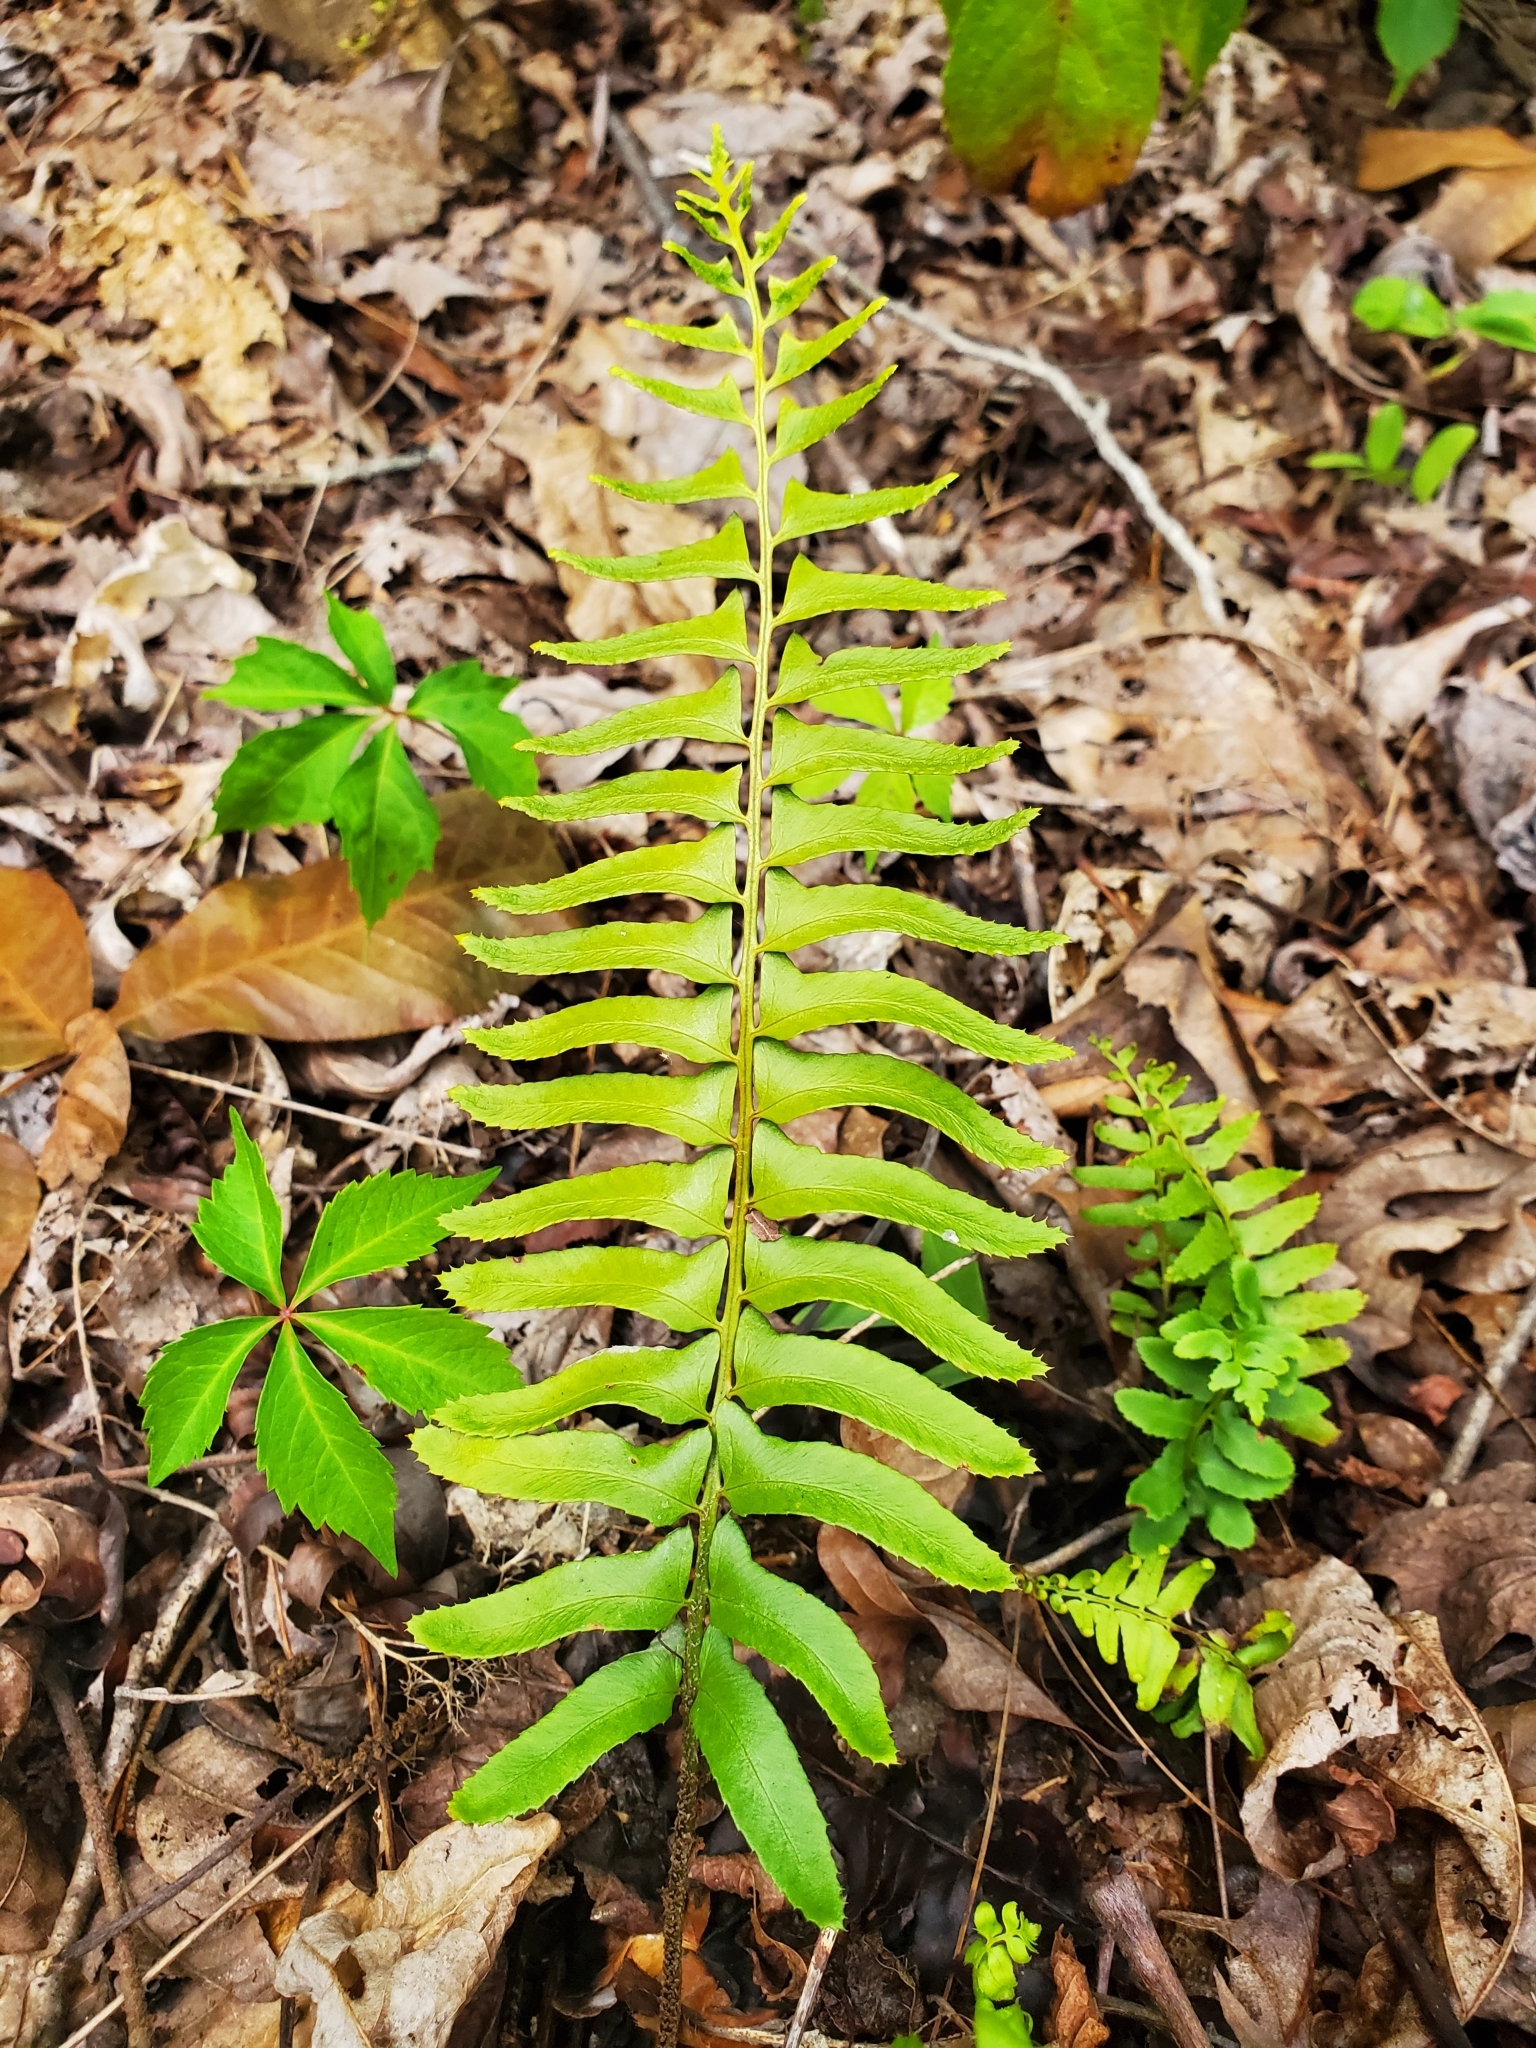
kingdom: Plantae
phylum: Tracheophyta
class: Polypodiopsida
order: Polypodiales
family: Dryopteridaceae
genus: Polystichum
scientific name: Polystichum acrostichoides
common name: Christmas fern
